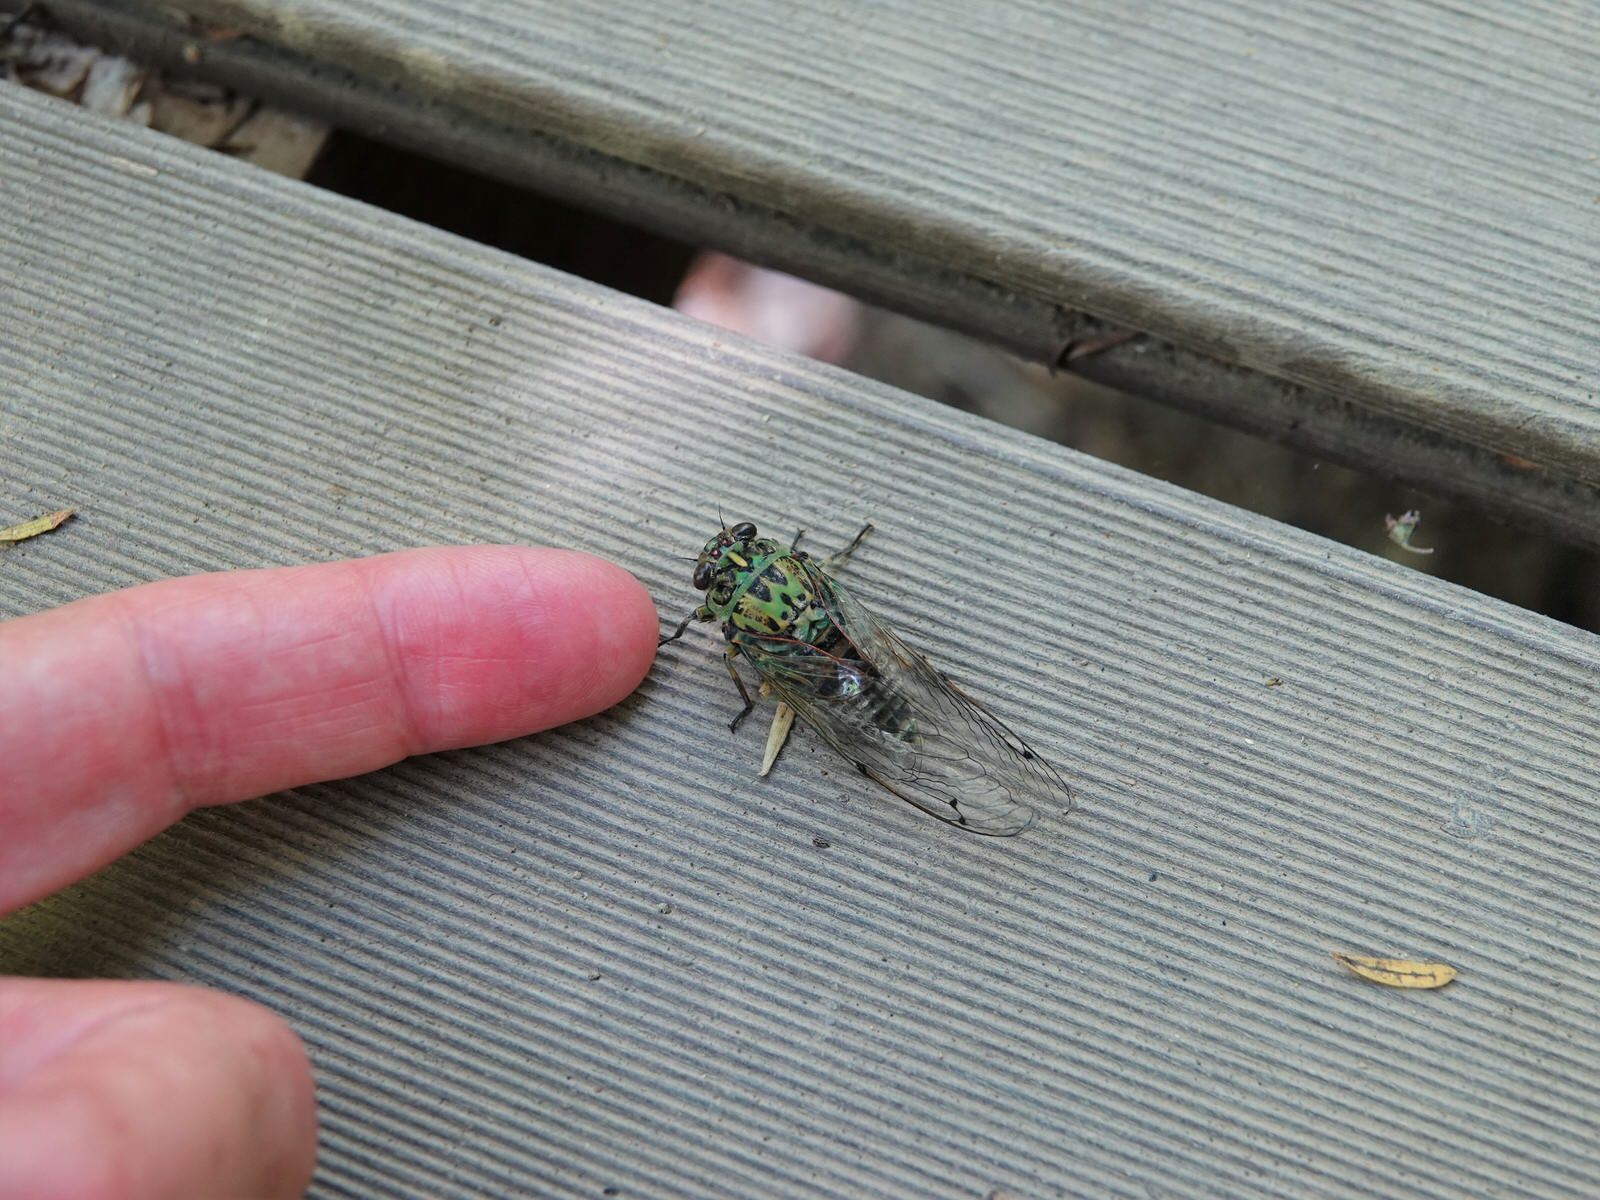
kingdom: Animalia
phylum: Arthropoda
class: Insecta
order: Hemiptera
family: Cicadidae
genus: Amphipsalta
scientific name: Amphipsalta zelandica
